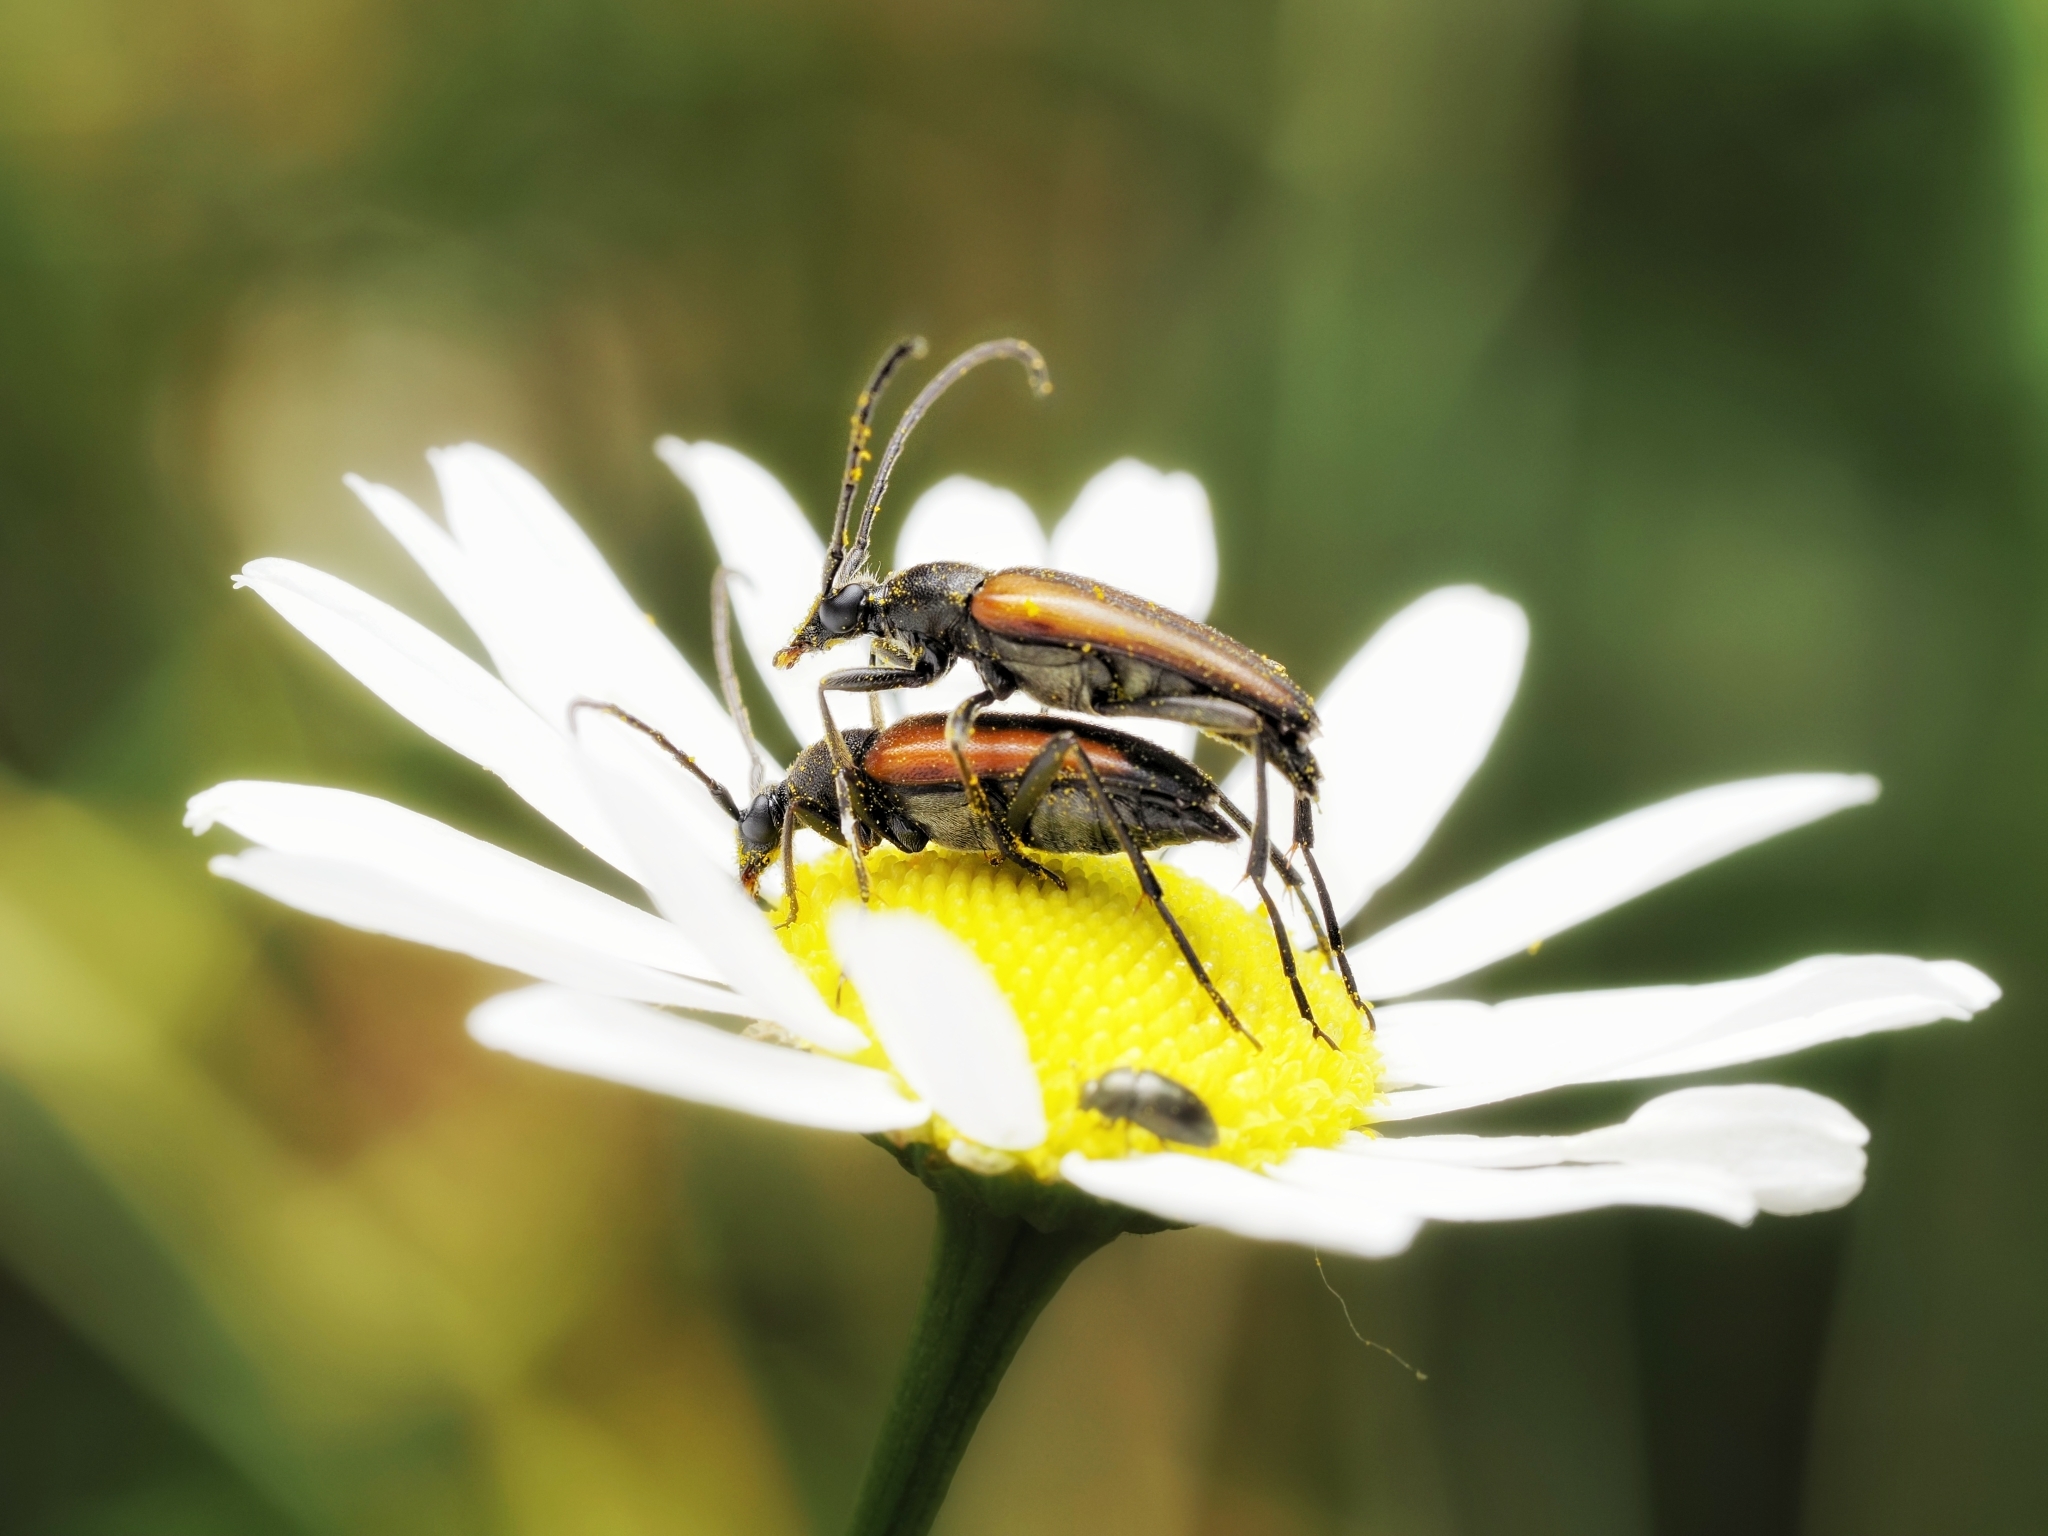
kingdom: Animalia
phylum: Arthropoda
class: Insecta
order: Coleoptera
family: Cerambycidae
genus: Stenurella
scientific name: Stenurella melanura
